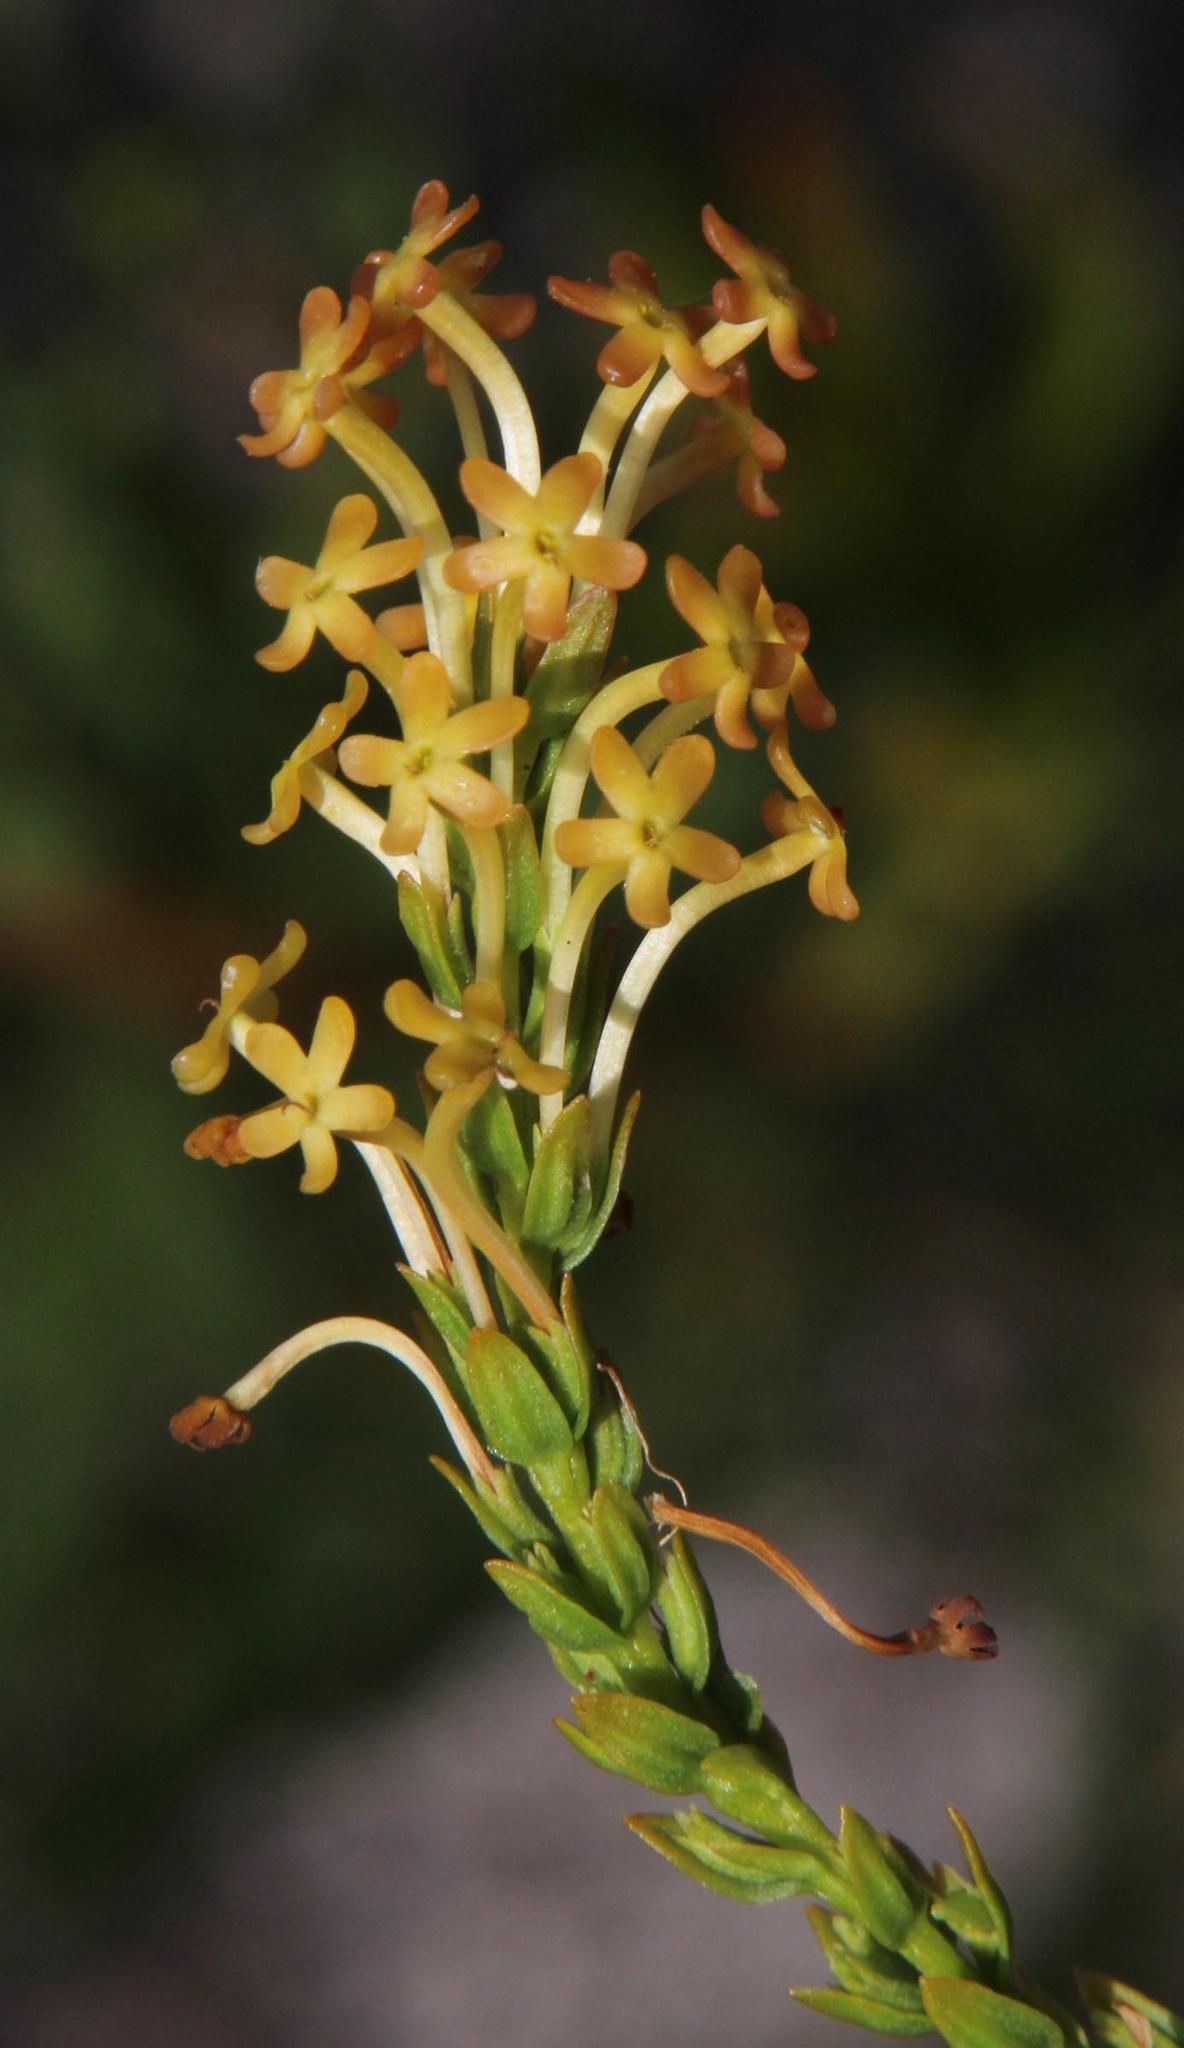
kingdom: Plantae
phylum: Tracheophyta
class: Magnoliopsida
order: Lamiales
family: Scrophulariaceae
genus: Microdon
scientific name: Microdon dubius
